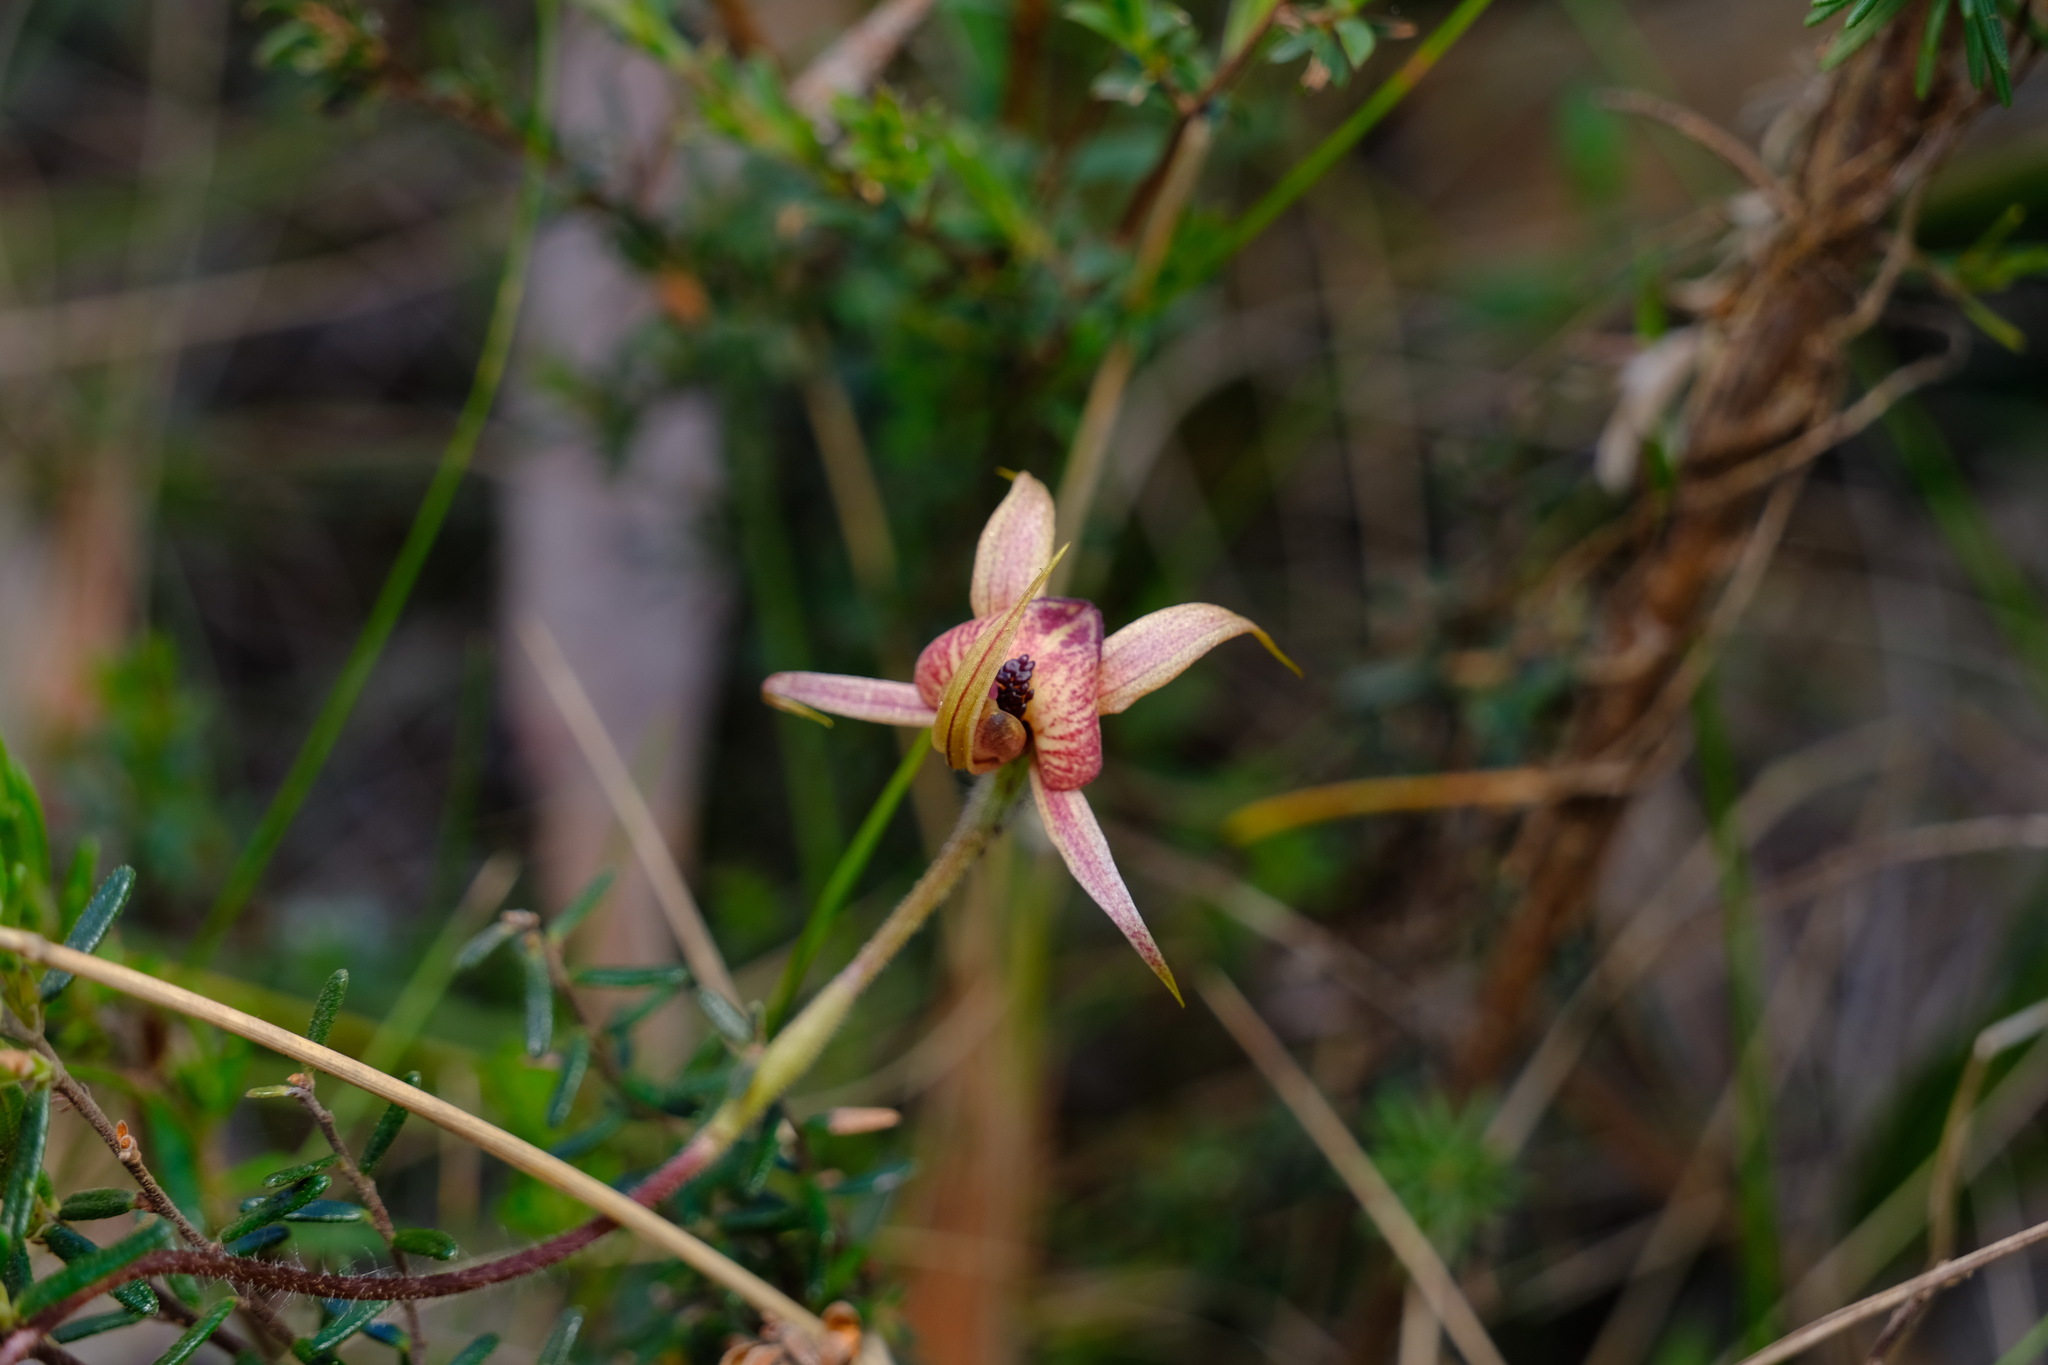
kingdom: Plantae
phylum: Tracheophyta
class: Liliopsida
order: Asparagales
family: Orchidaceae
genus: Caladenia
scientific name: Caladenia cardiochila
